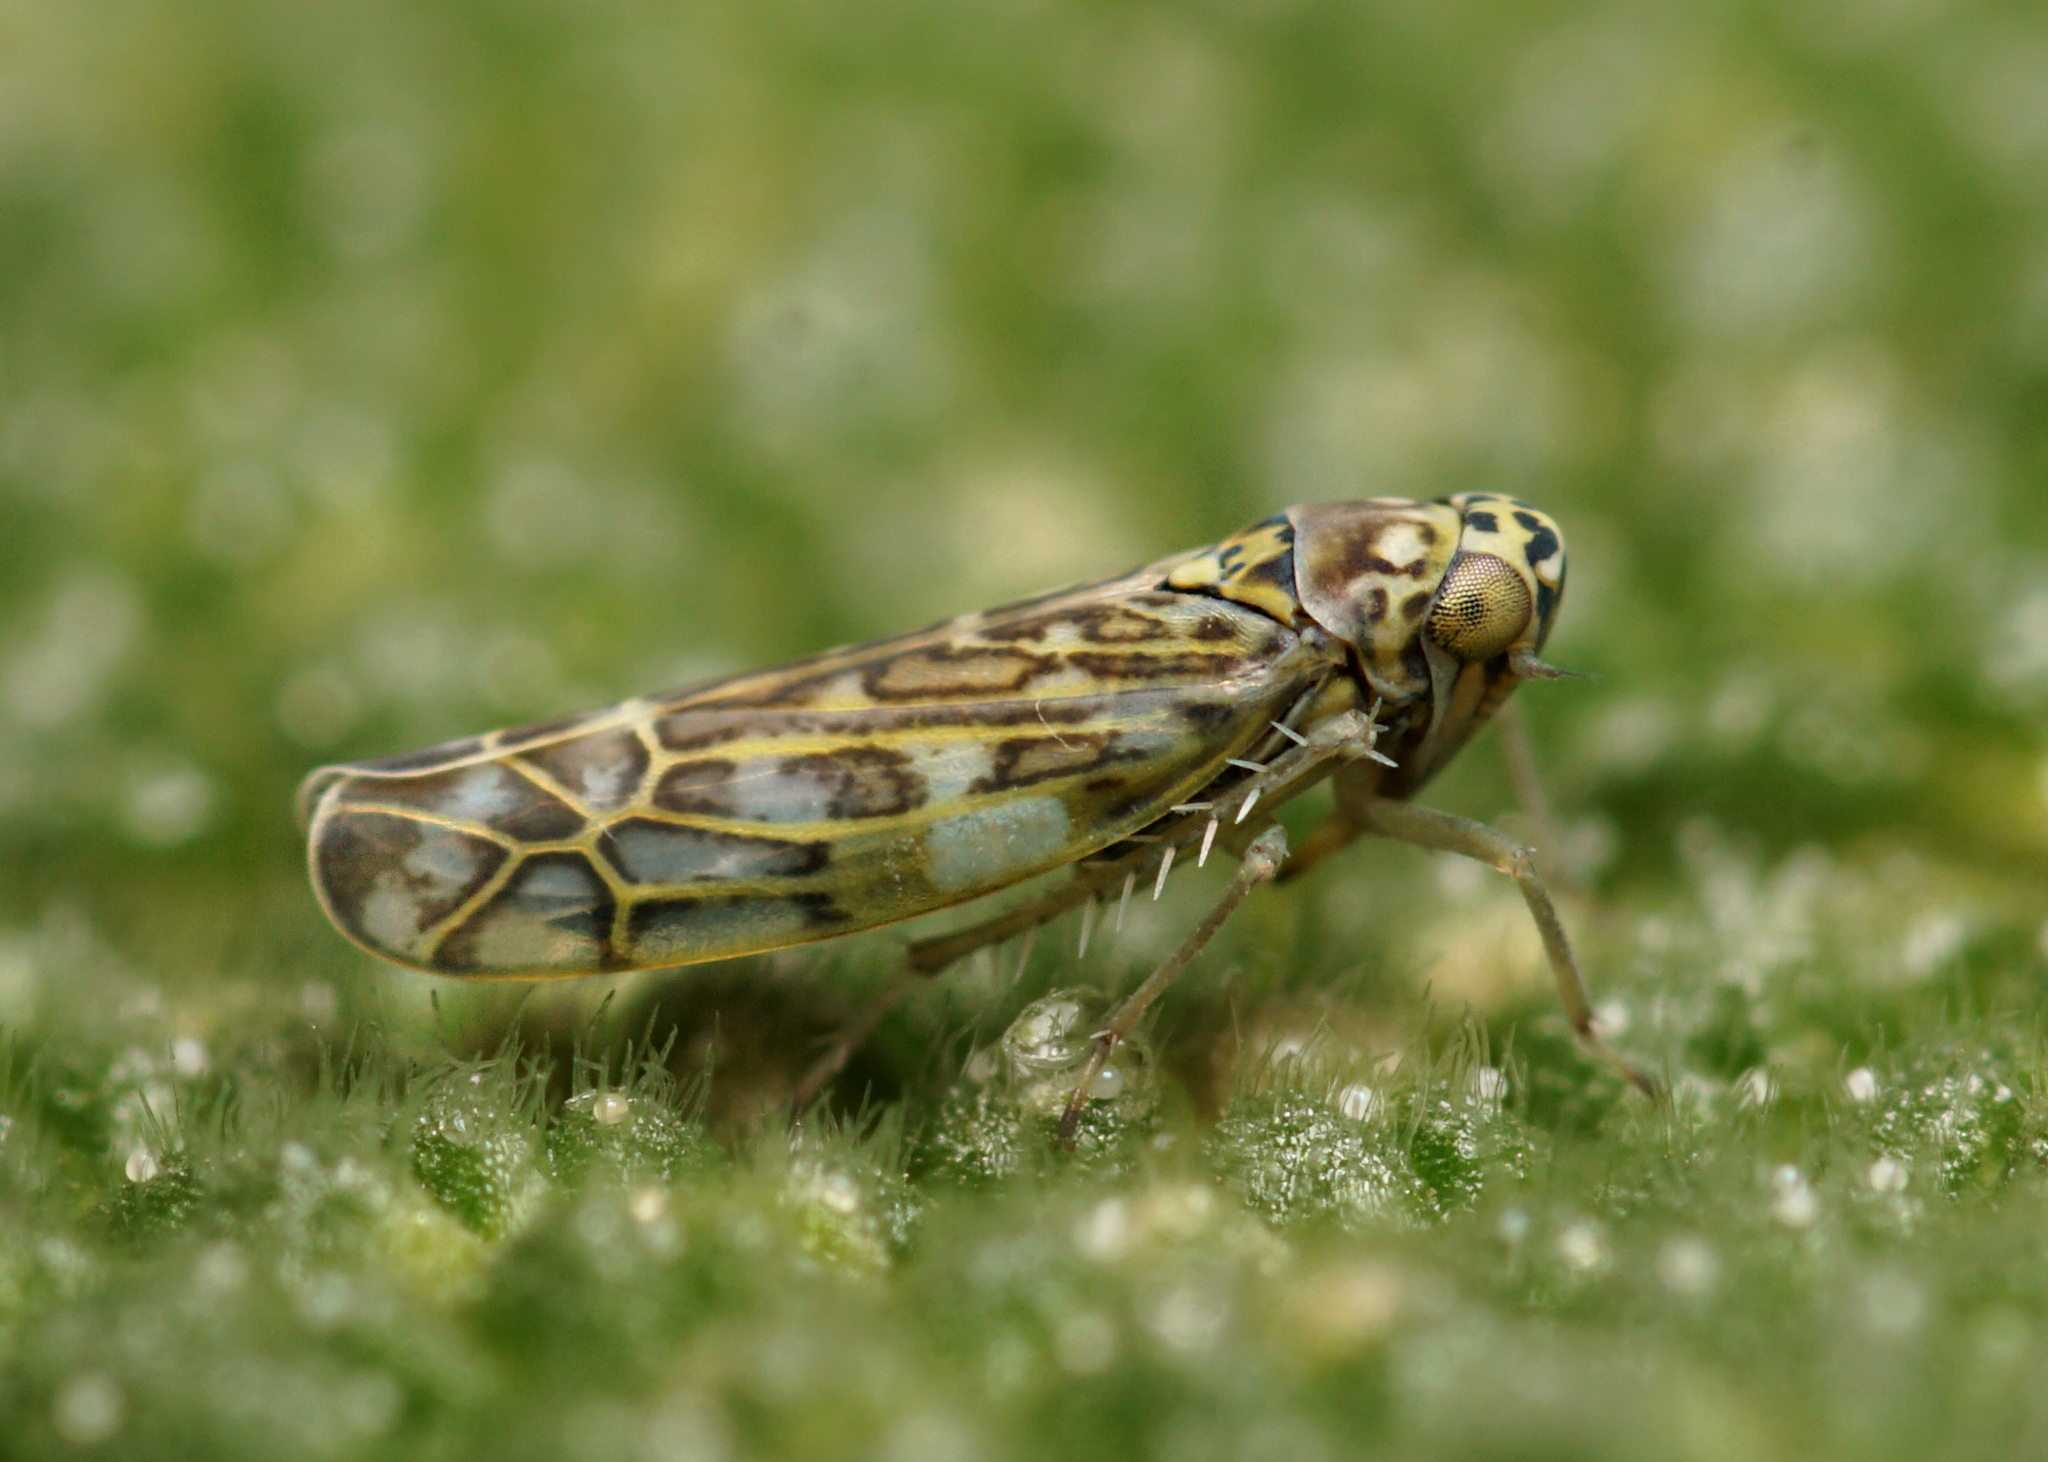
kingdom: Animalia
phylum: Arthropoda
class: Insecta
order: Hemiptera
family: Cicadellidae
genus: Eupteryx
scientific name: Eupteryx decemnotata
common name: Ligurian leafhopper
